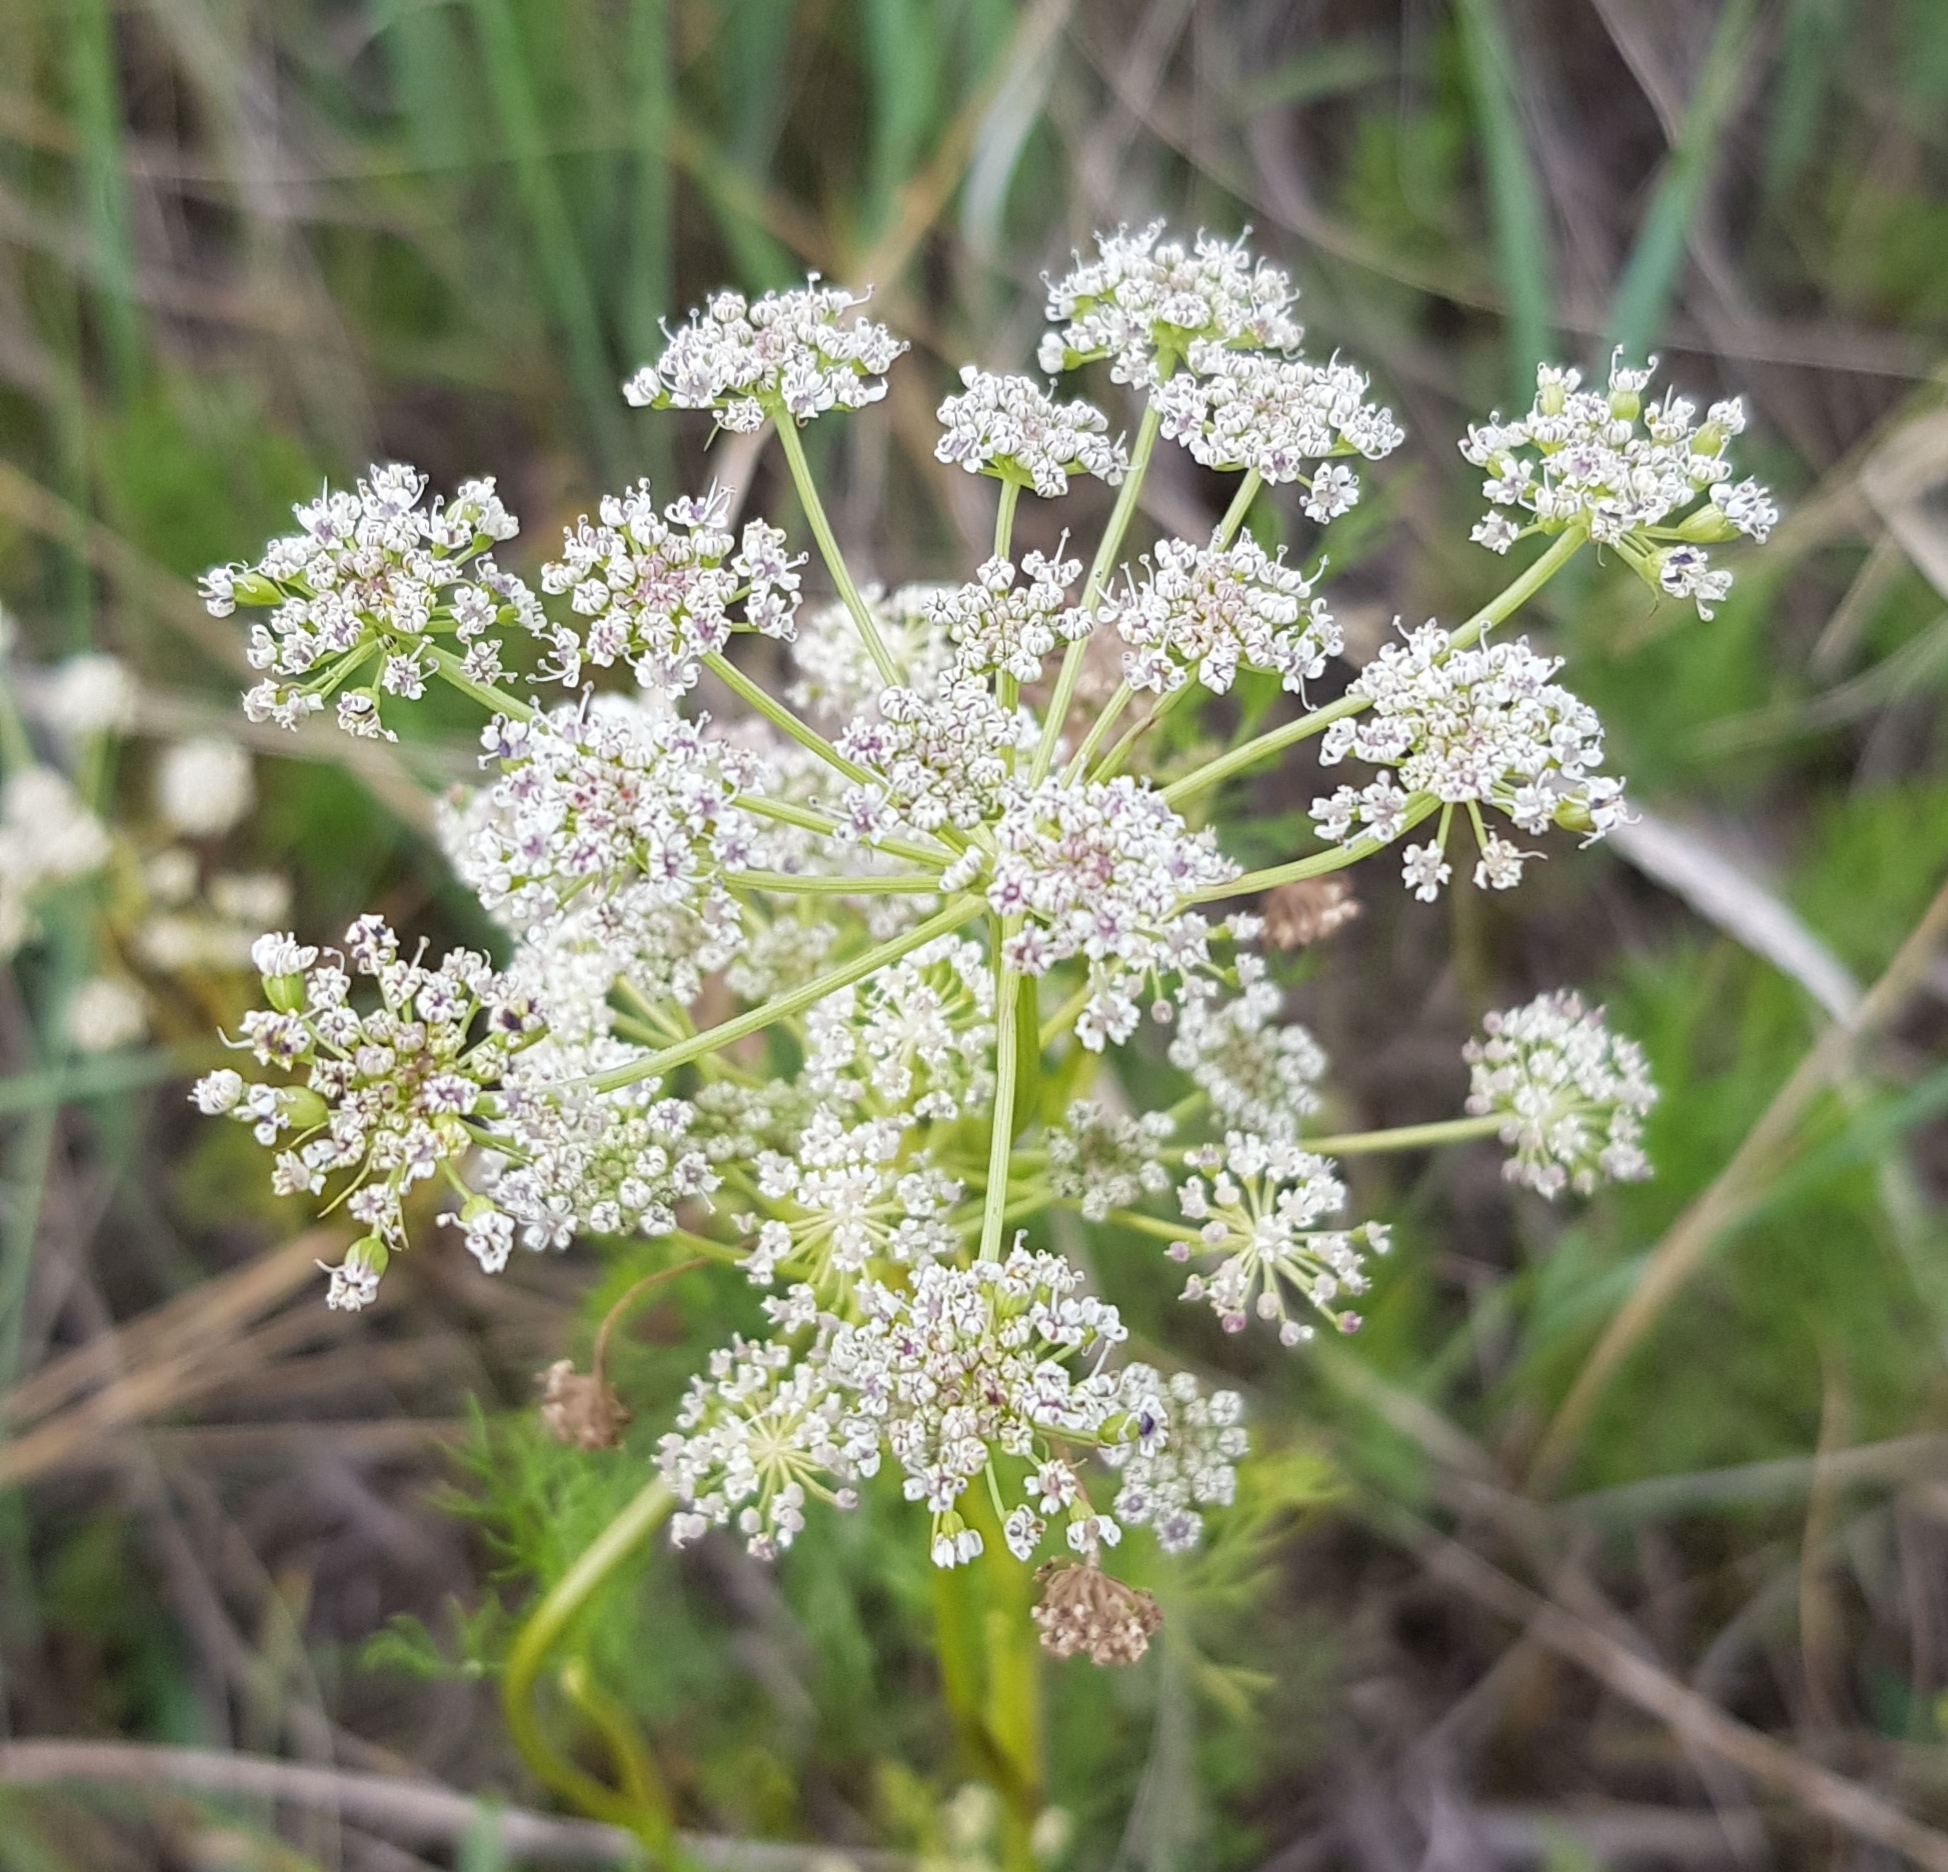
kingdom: Plantae
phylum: Tracheophyta
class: Magnoliopsida
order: Apiales
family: Apiaceae
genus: Kitagawia
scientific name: Kitagawia baicalensis
